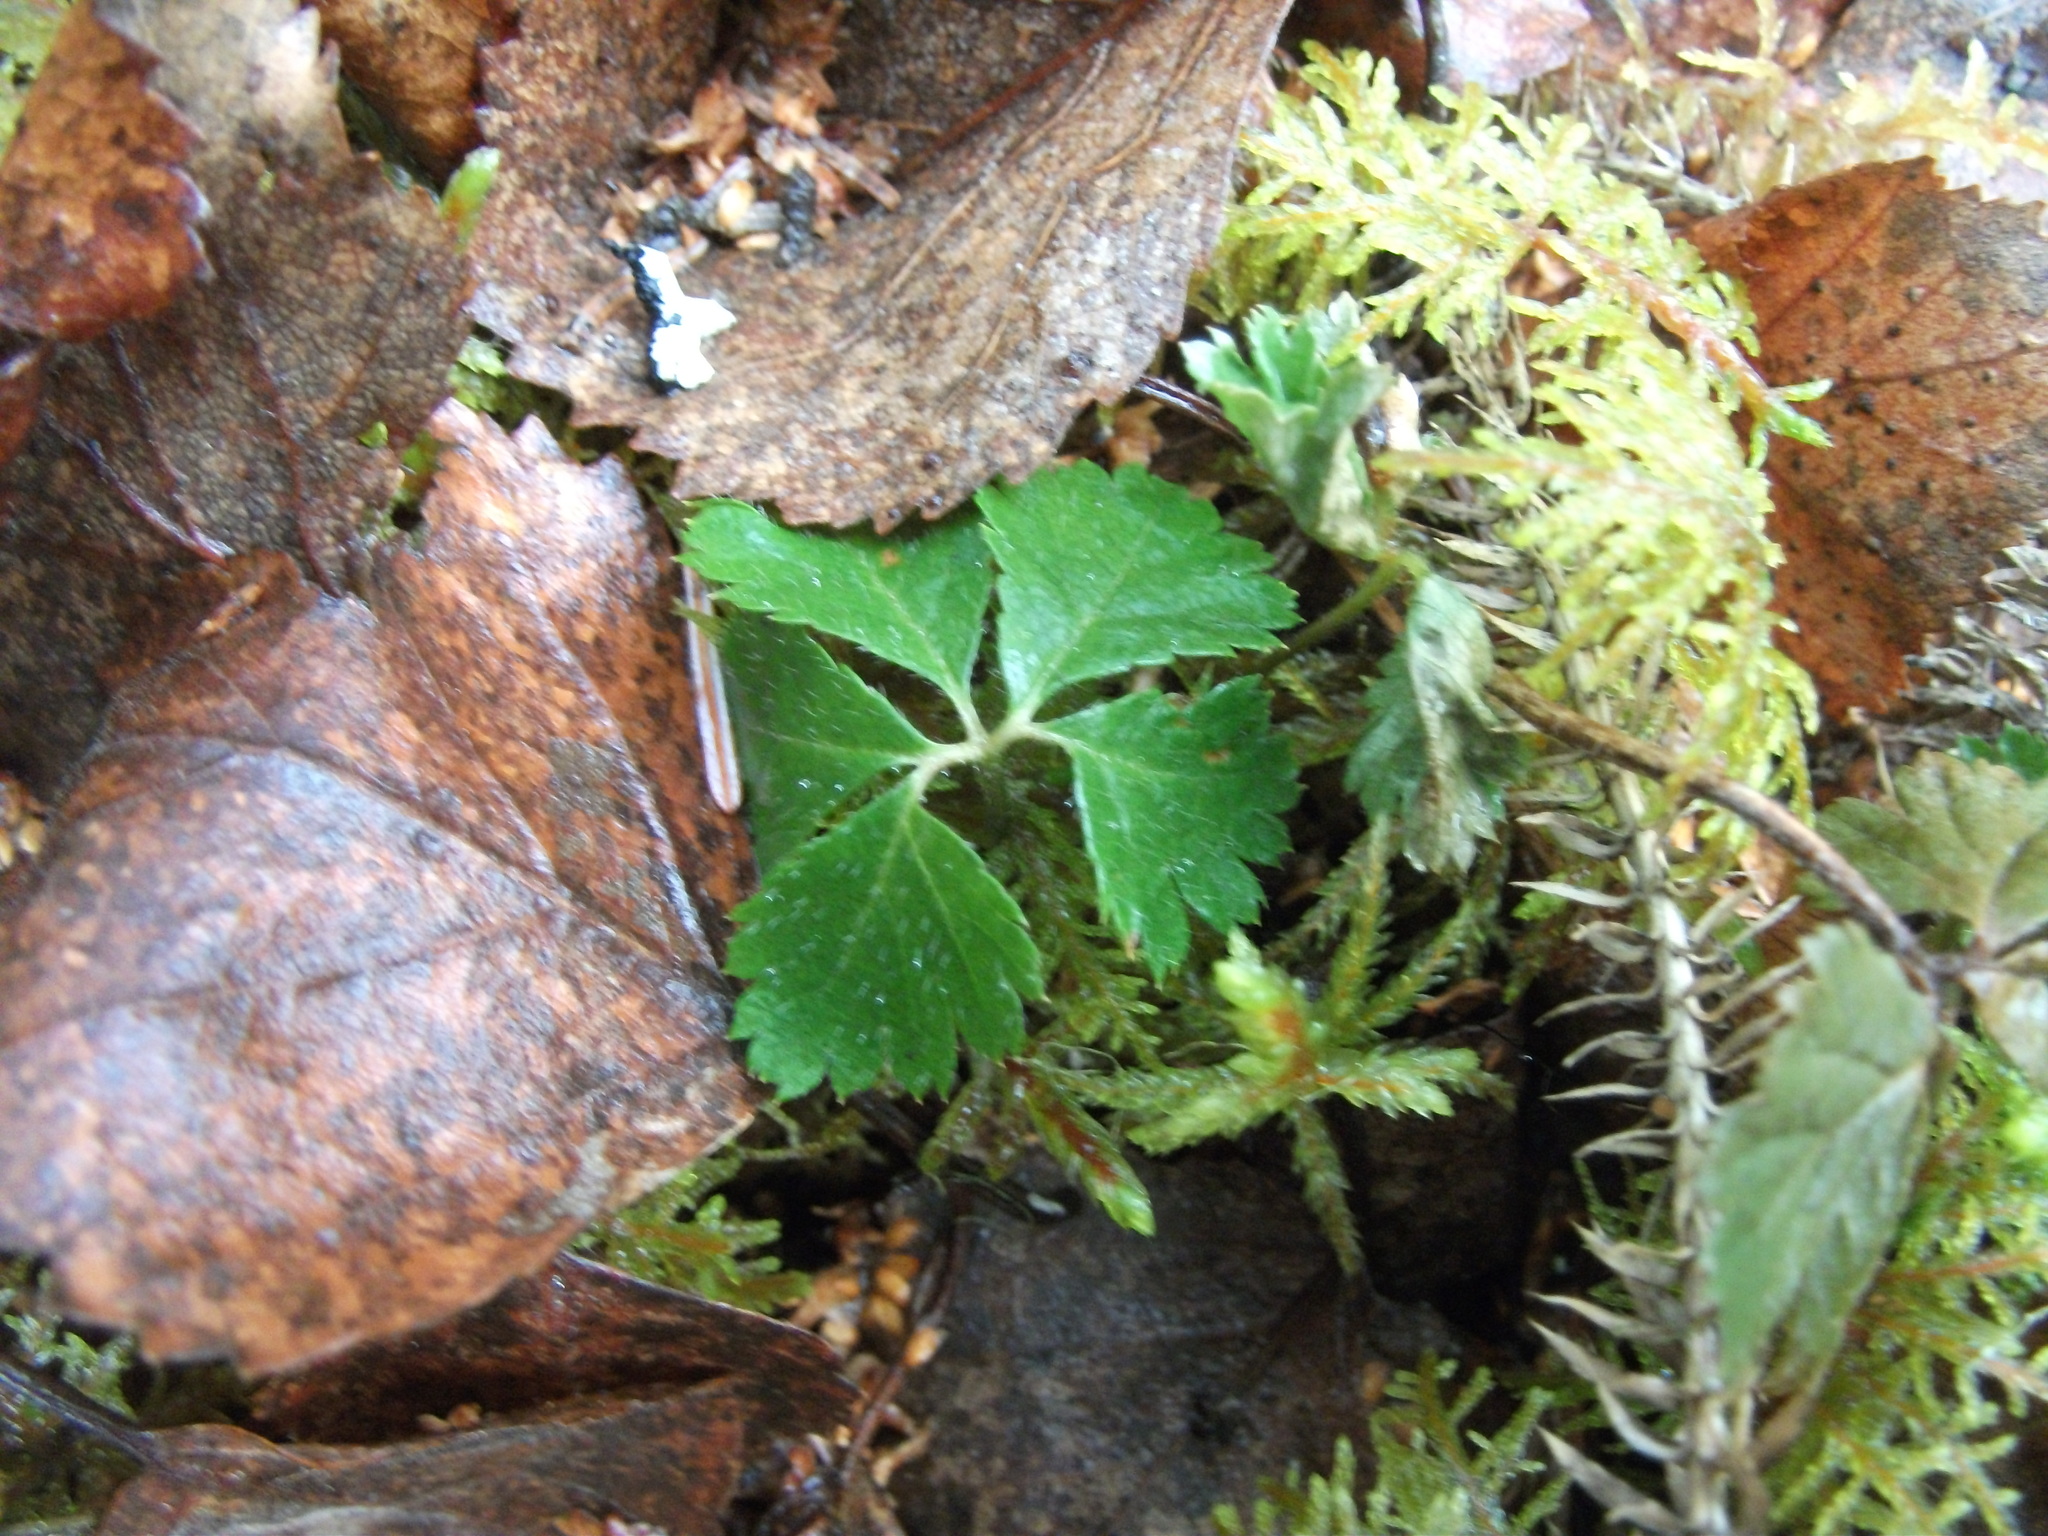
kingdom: Plantae
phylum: Tracheophyta
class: Magnoliopsida
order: Rosales
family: Rosaceae
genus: Rubus
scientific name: Rubus pedatus
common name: Creeping raspberry
